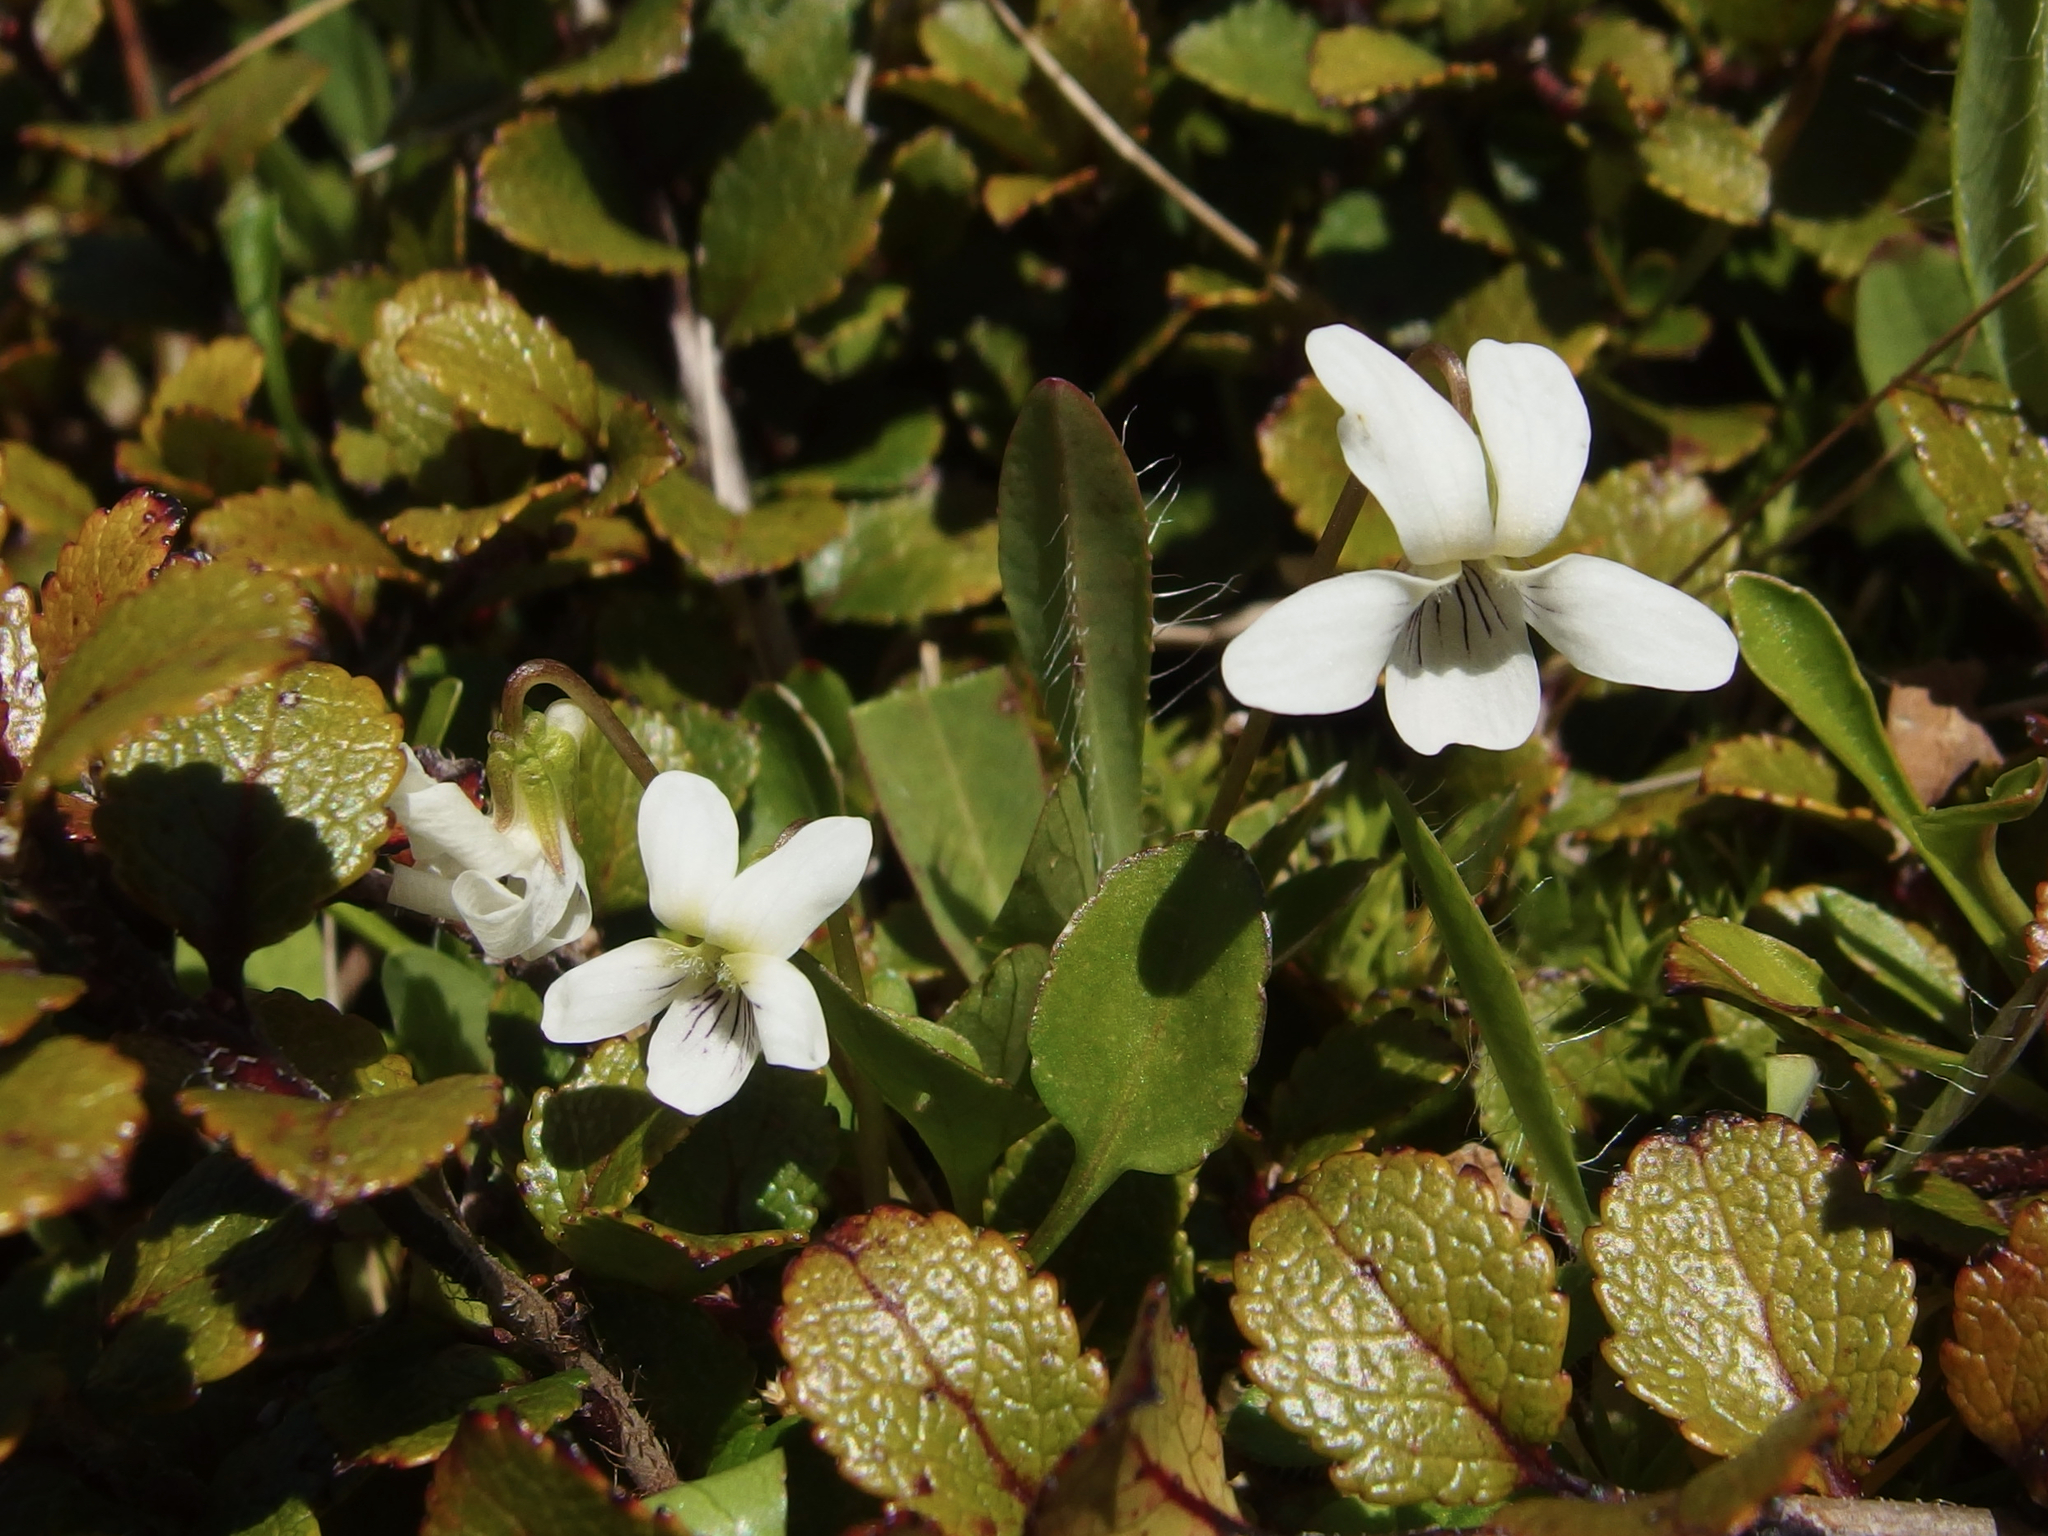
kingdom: Plantae
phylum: Tracheophyta
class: Magnoliopsida
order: Malpighiales
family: Violaceae
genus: Viola
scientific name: Viola cunninghamii
